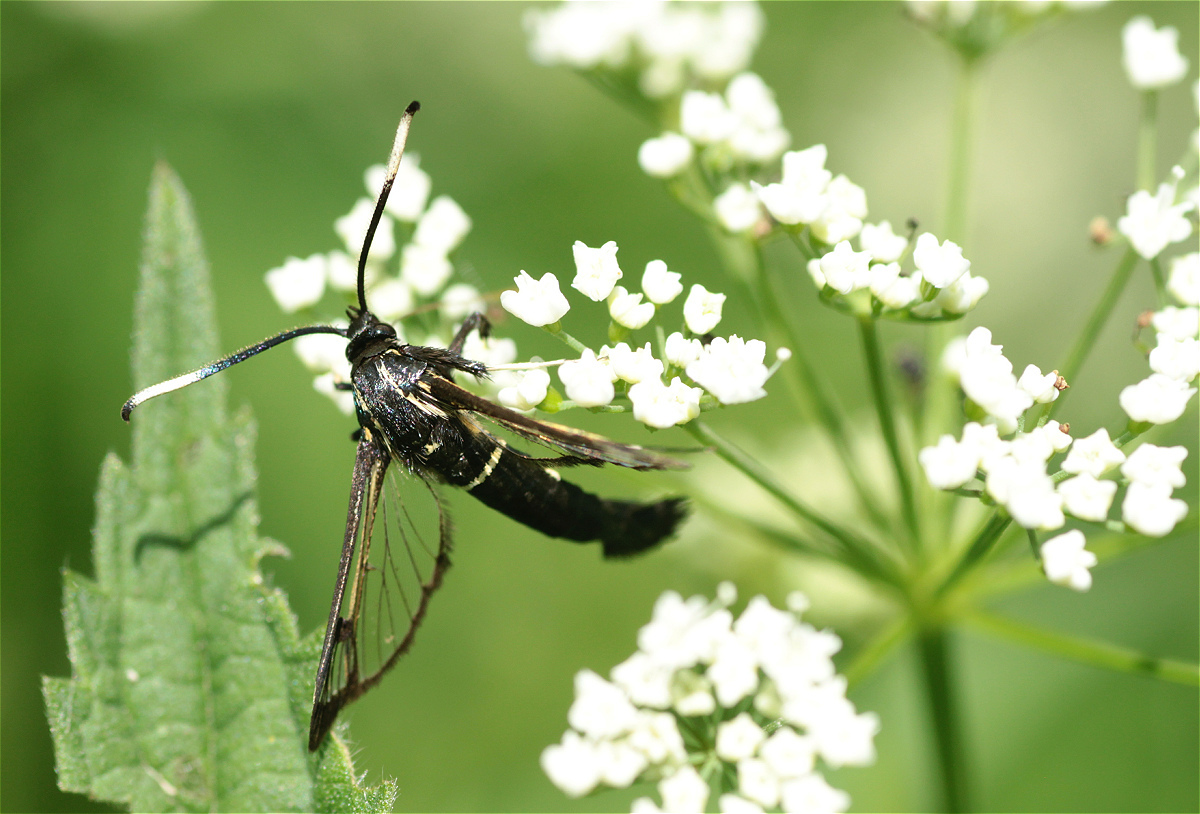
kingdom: Animalia
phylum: Arthropoda
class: Insecta
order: Lepidoptera
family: Sesiidae
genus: Synanthedon
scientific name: Synanthedon spheciformis
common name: White-barred clearwing
